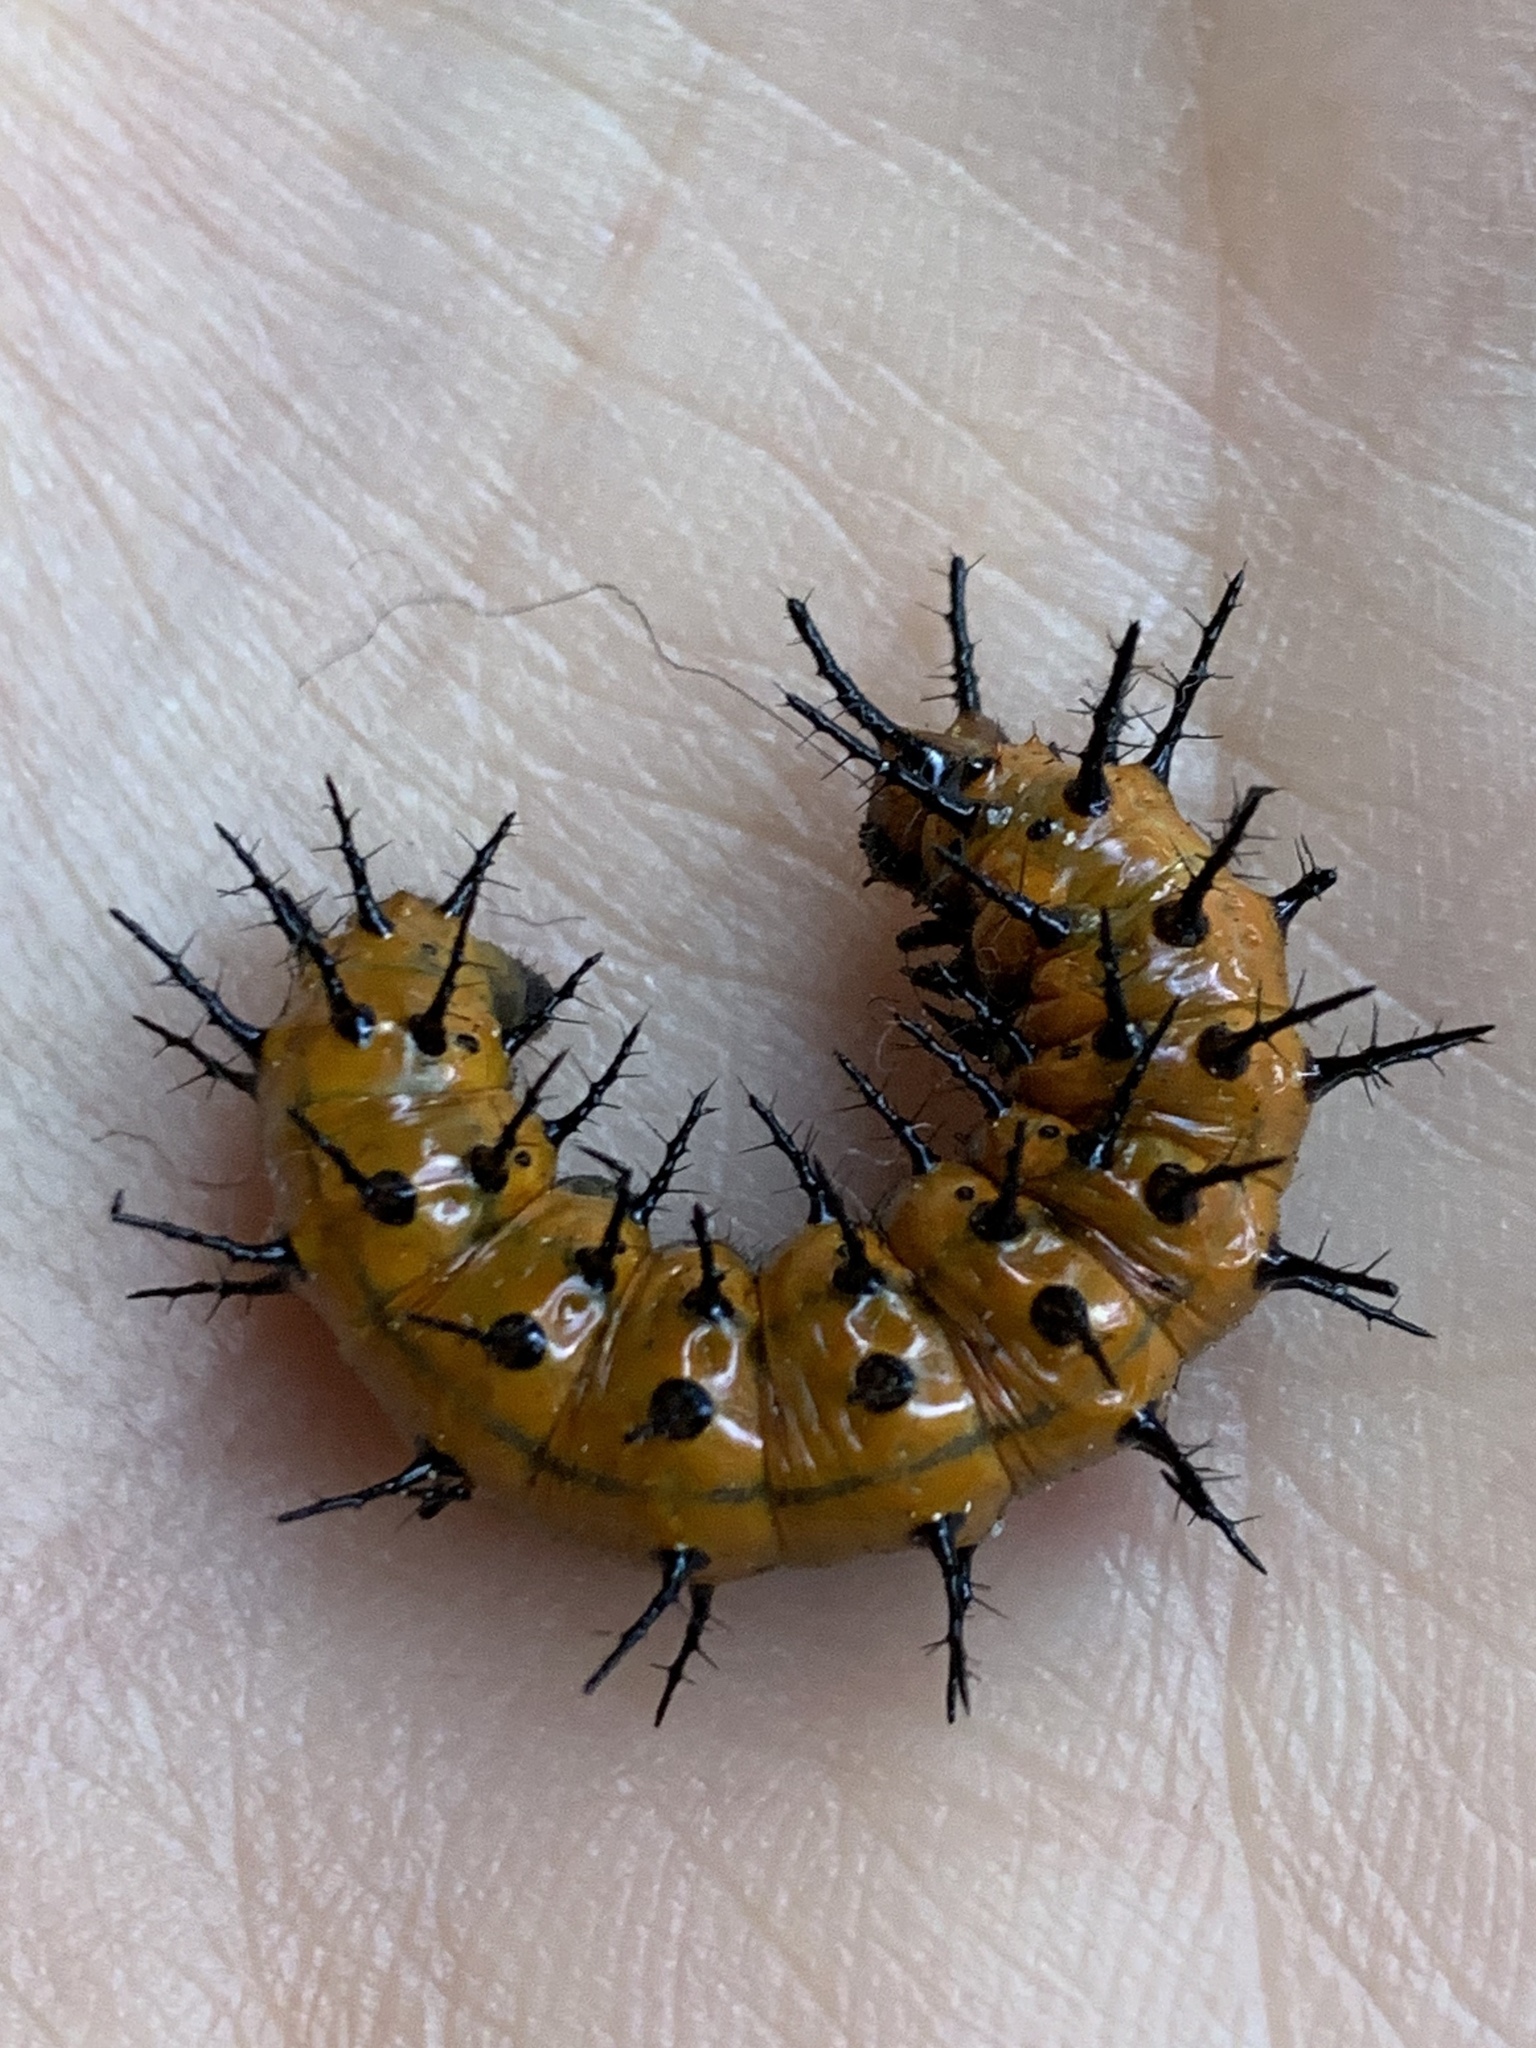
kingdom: Animalia
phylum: Arthropoda
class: Insecta
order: Lepidoptera
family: Nymphalidae
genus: Dione
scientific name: Dione vanillae
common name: Gulf fritillary
